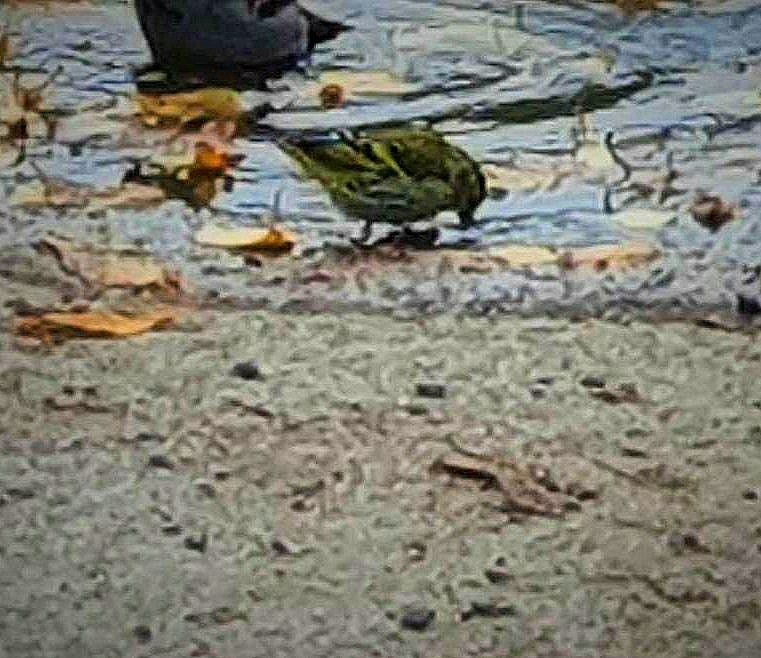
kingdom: Animalia
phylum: Chordata
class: Aves
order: Passeriformes
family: Fringillidae
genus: Spinus
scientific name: Spinus spinus
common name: Eurasian siskin
